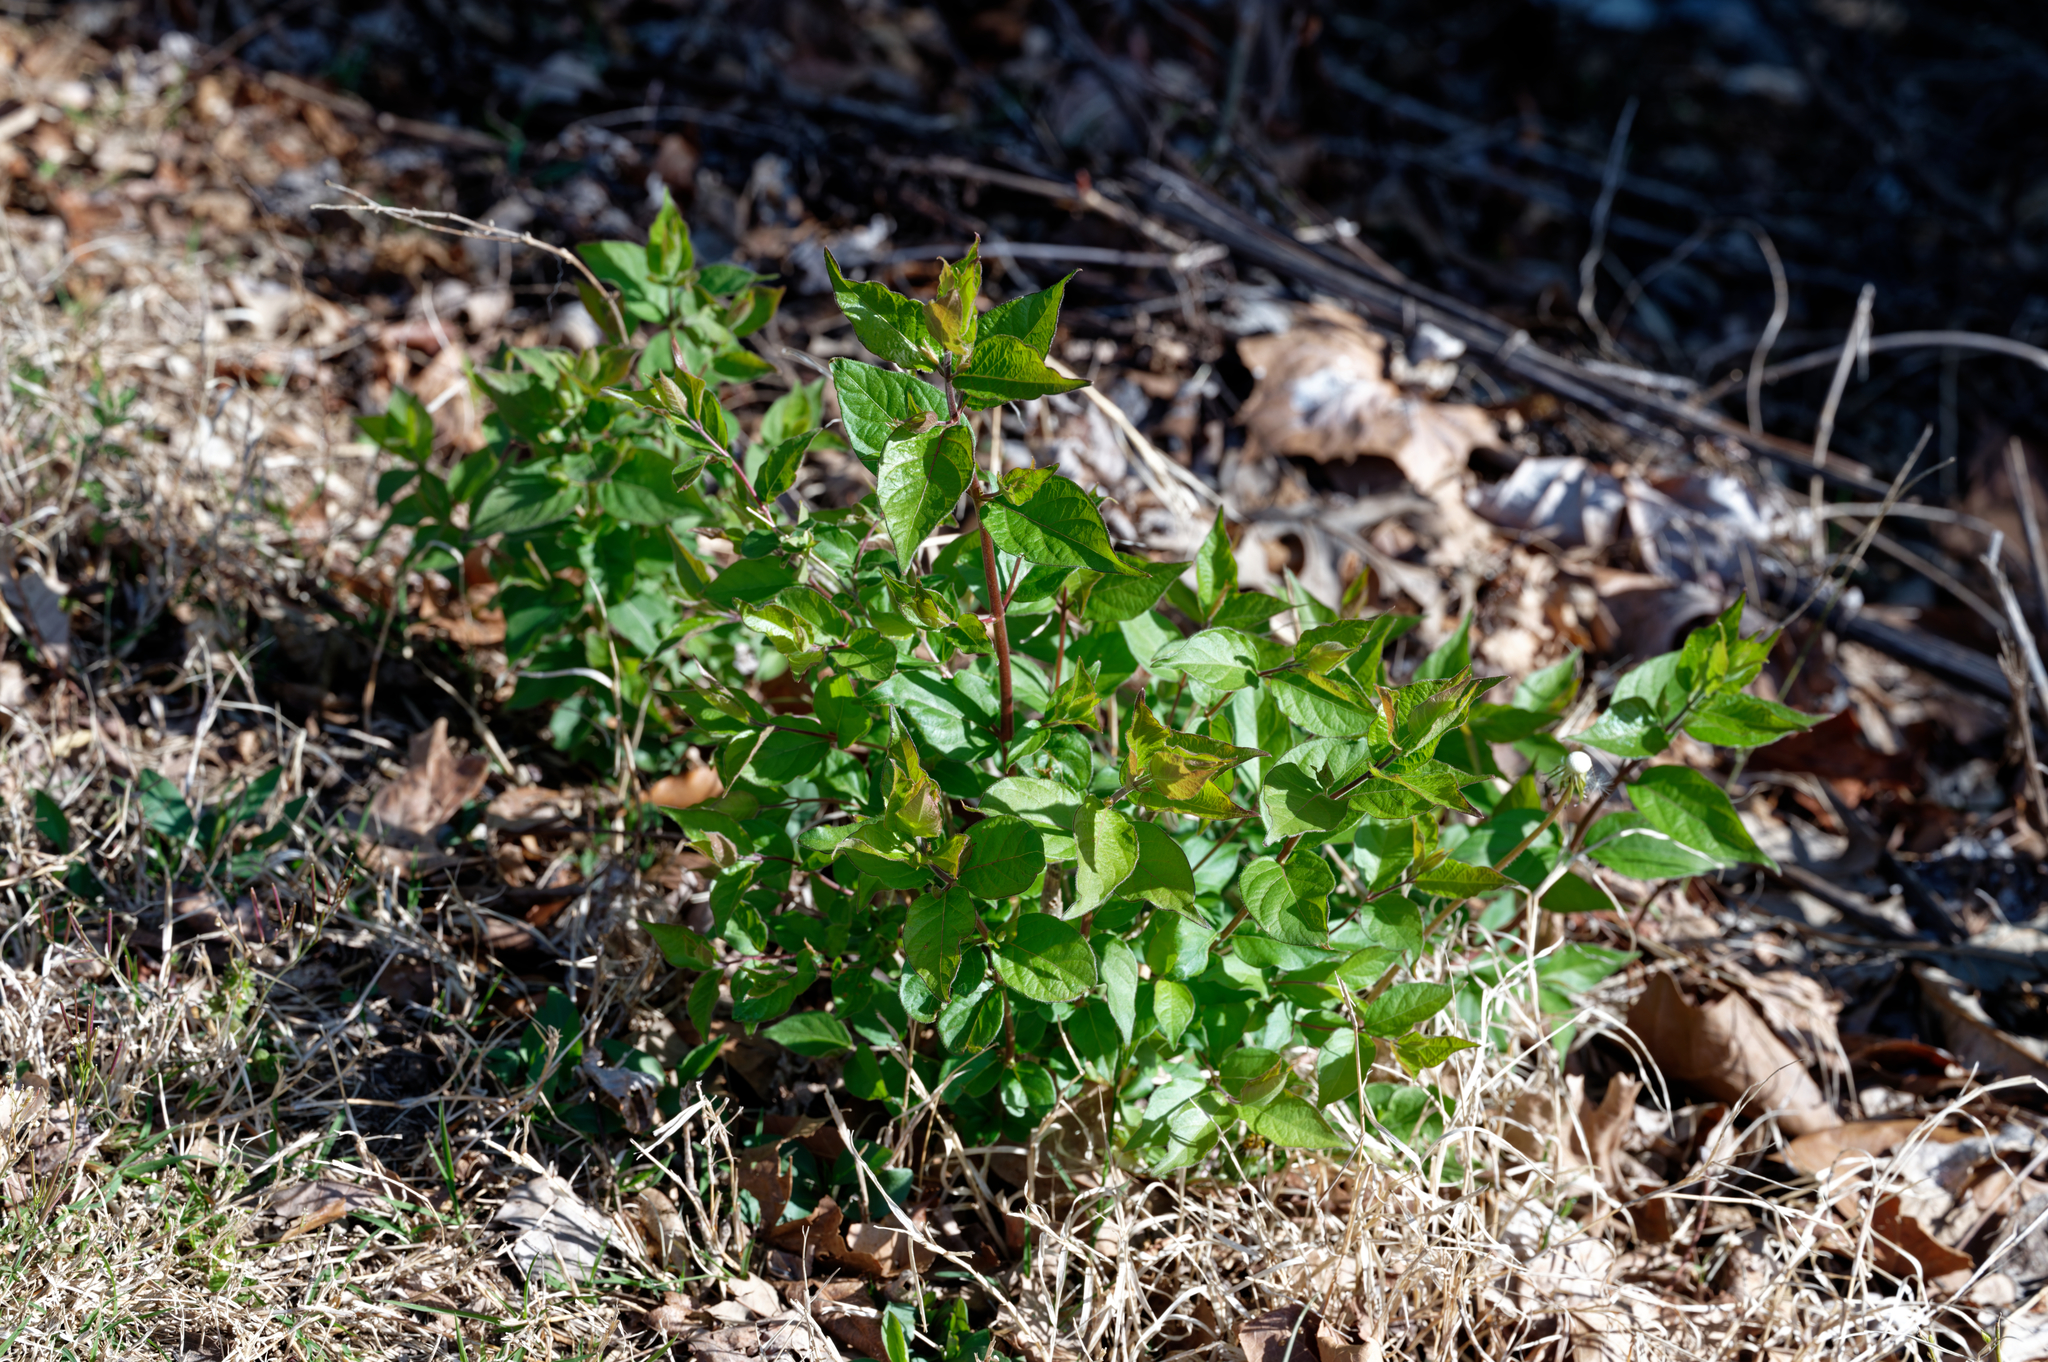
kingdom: Plantae
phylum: Tracheophyta
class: Magnoliopsida
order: Dipsacales
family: Caprifoliaceae
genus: Lonicera
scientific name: Lonicera maackii
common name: Amur honeysuckle
